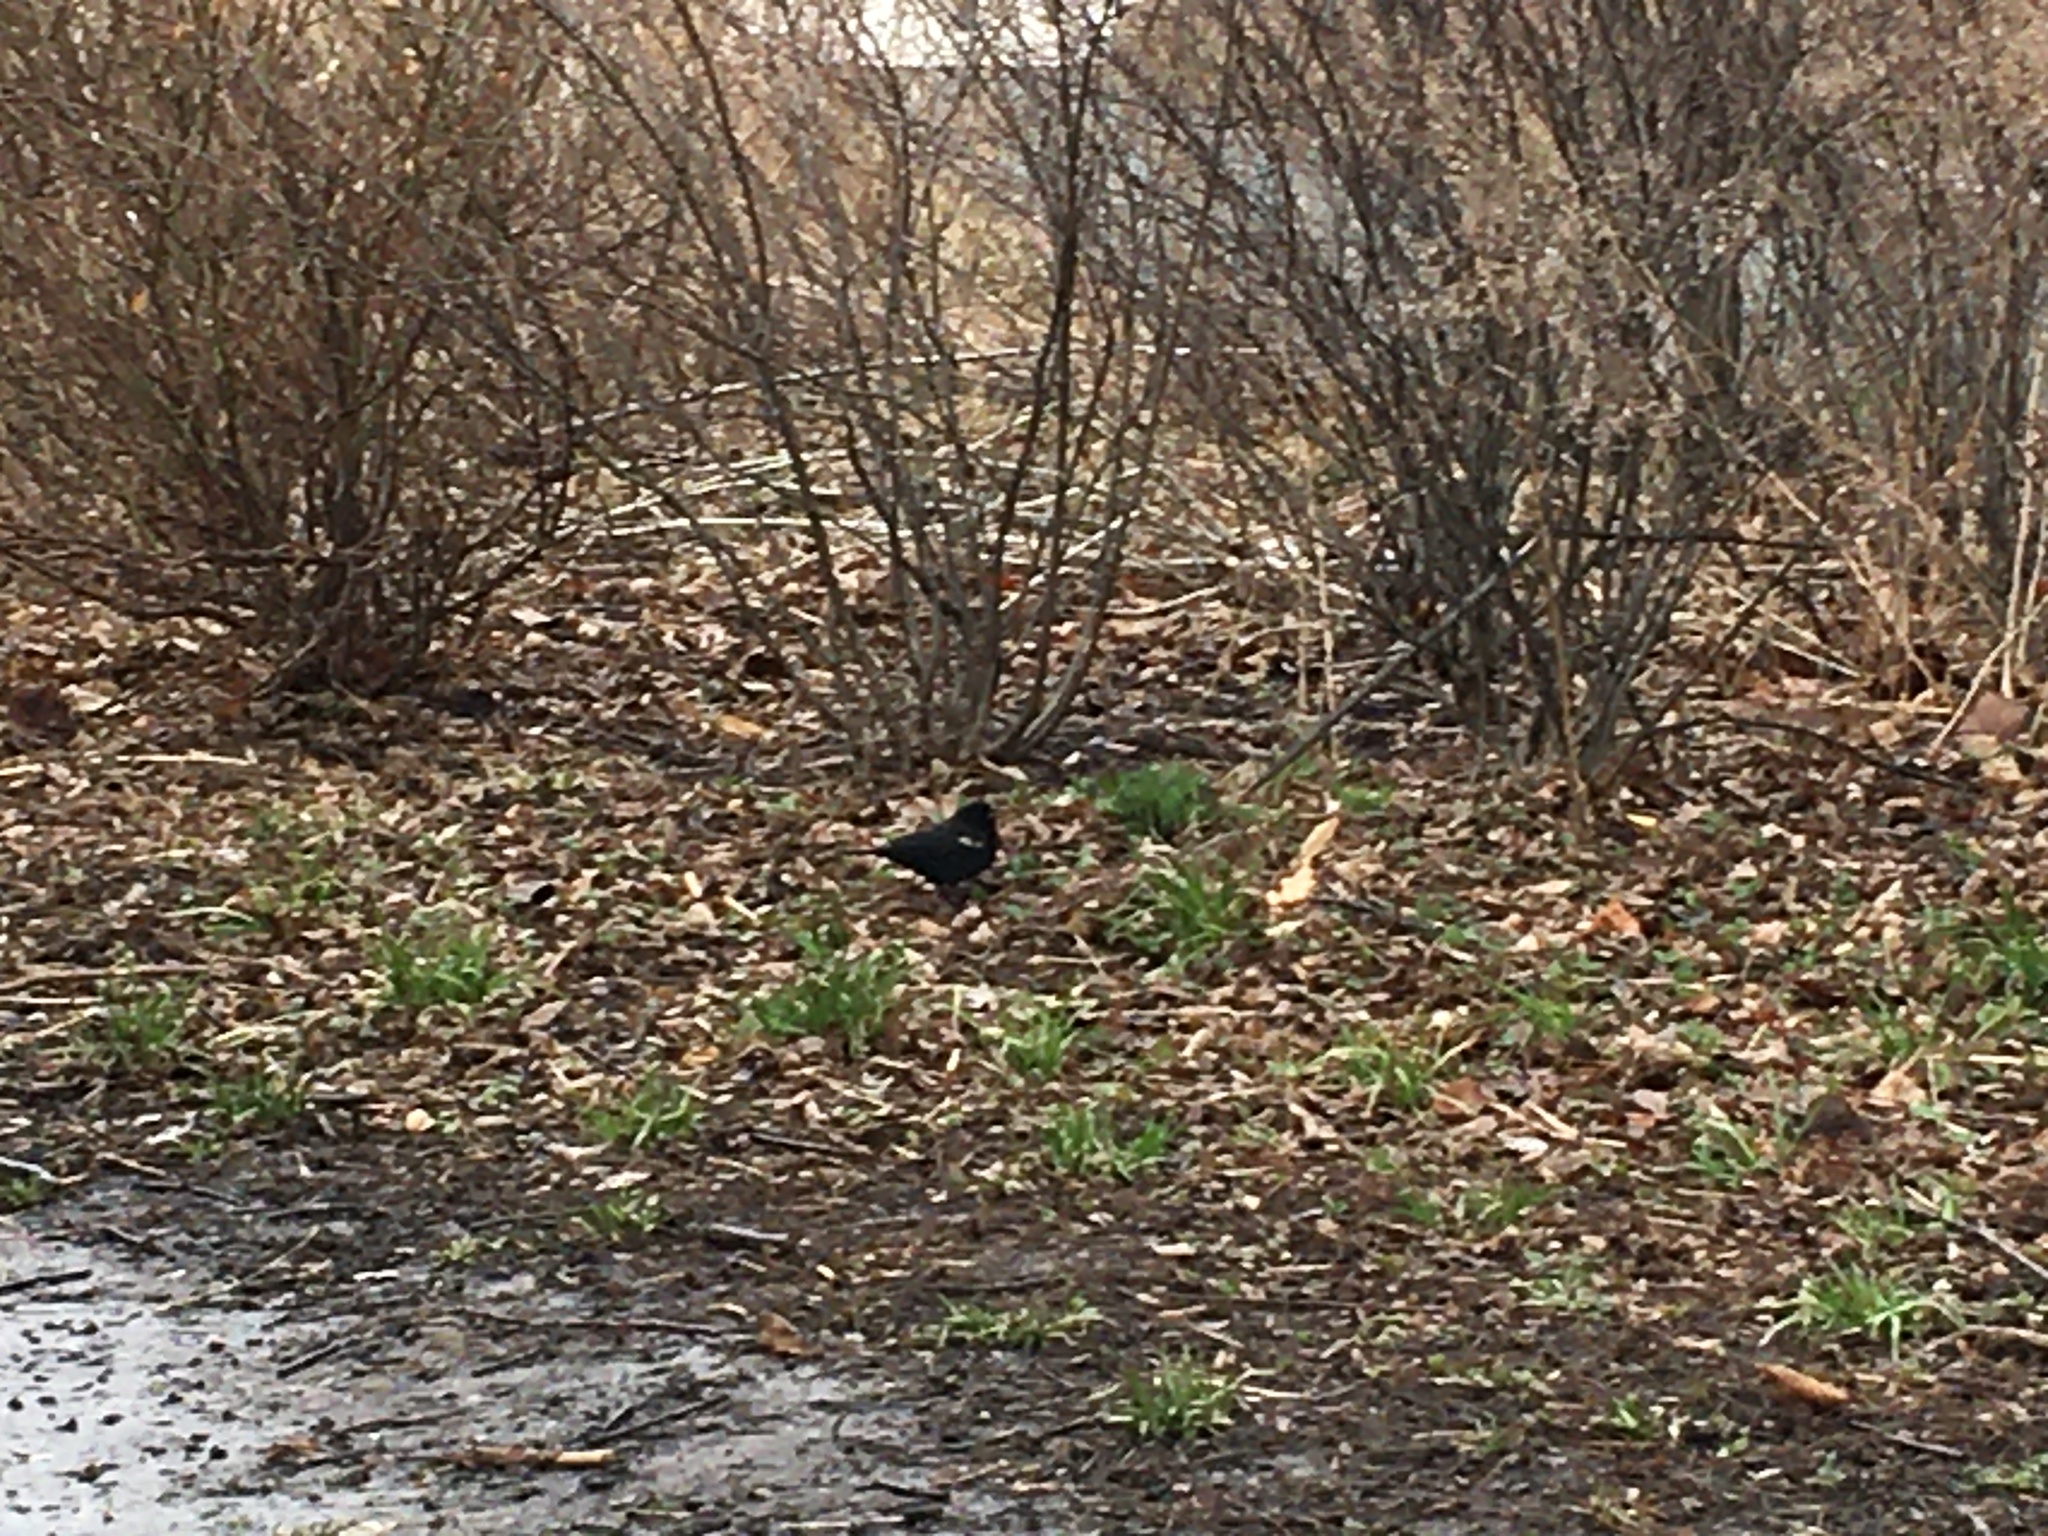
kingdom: Animalia
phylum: Chordata
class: Aves
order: Passeriformes
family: Icteridae
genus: Agelaius
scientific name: Agelaius phoeniceus
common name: Red-winged blackbird
